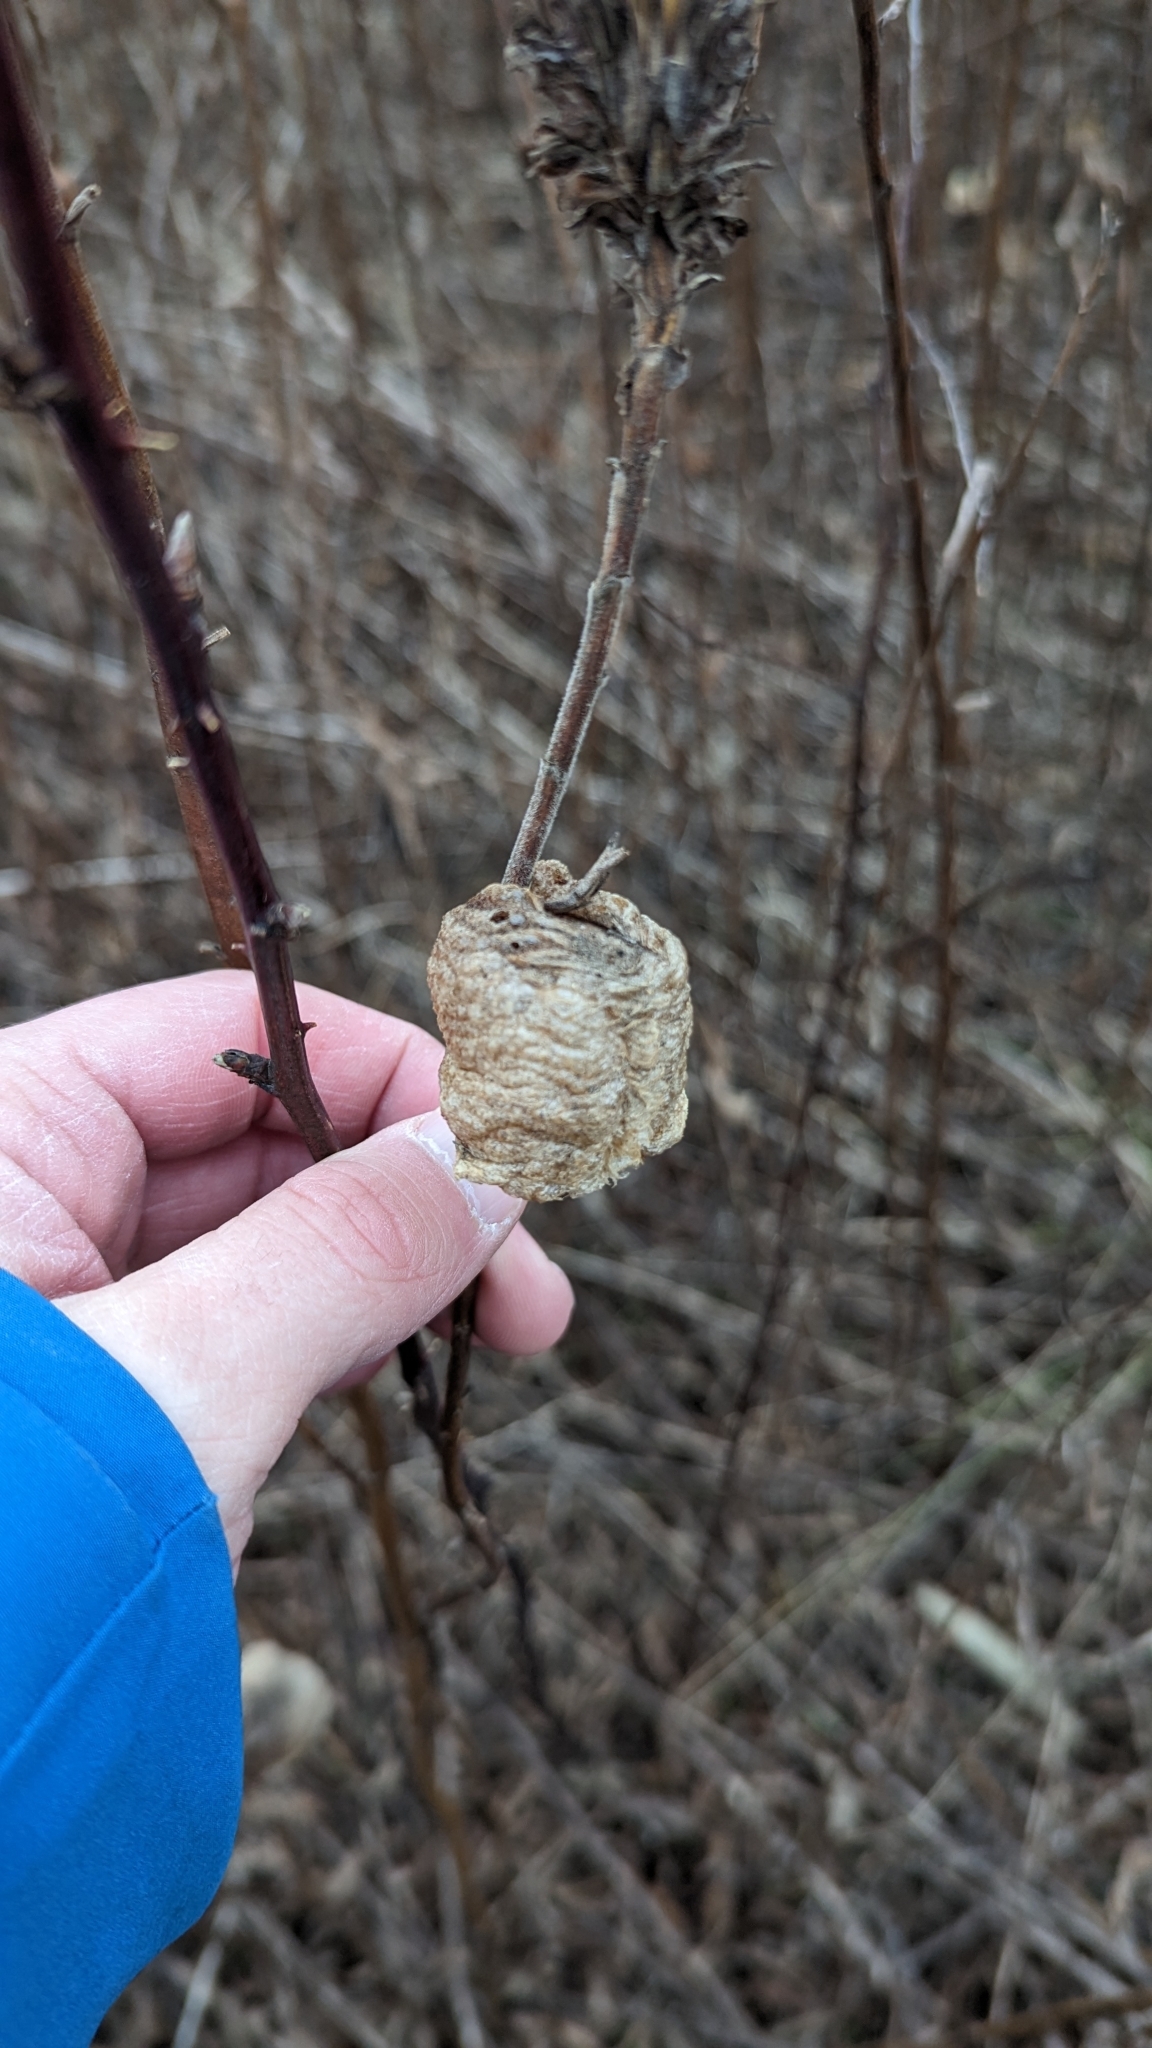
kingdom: Animalia
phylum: Arthropoda
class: Insecta
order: Mantodea
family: Mantidae
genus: Tenodera
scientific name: Tenodera sinensis
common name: Chinese mantis
